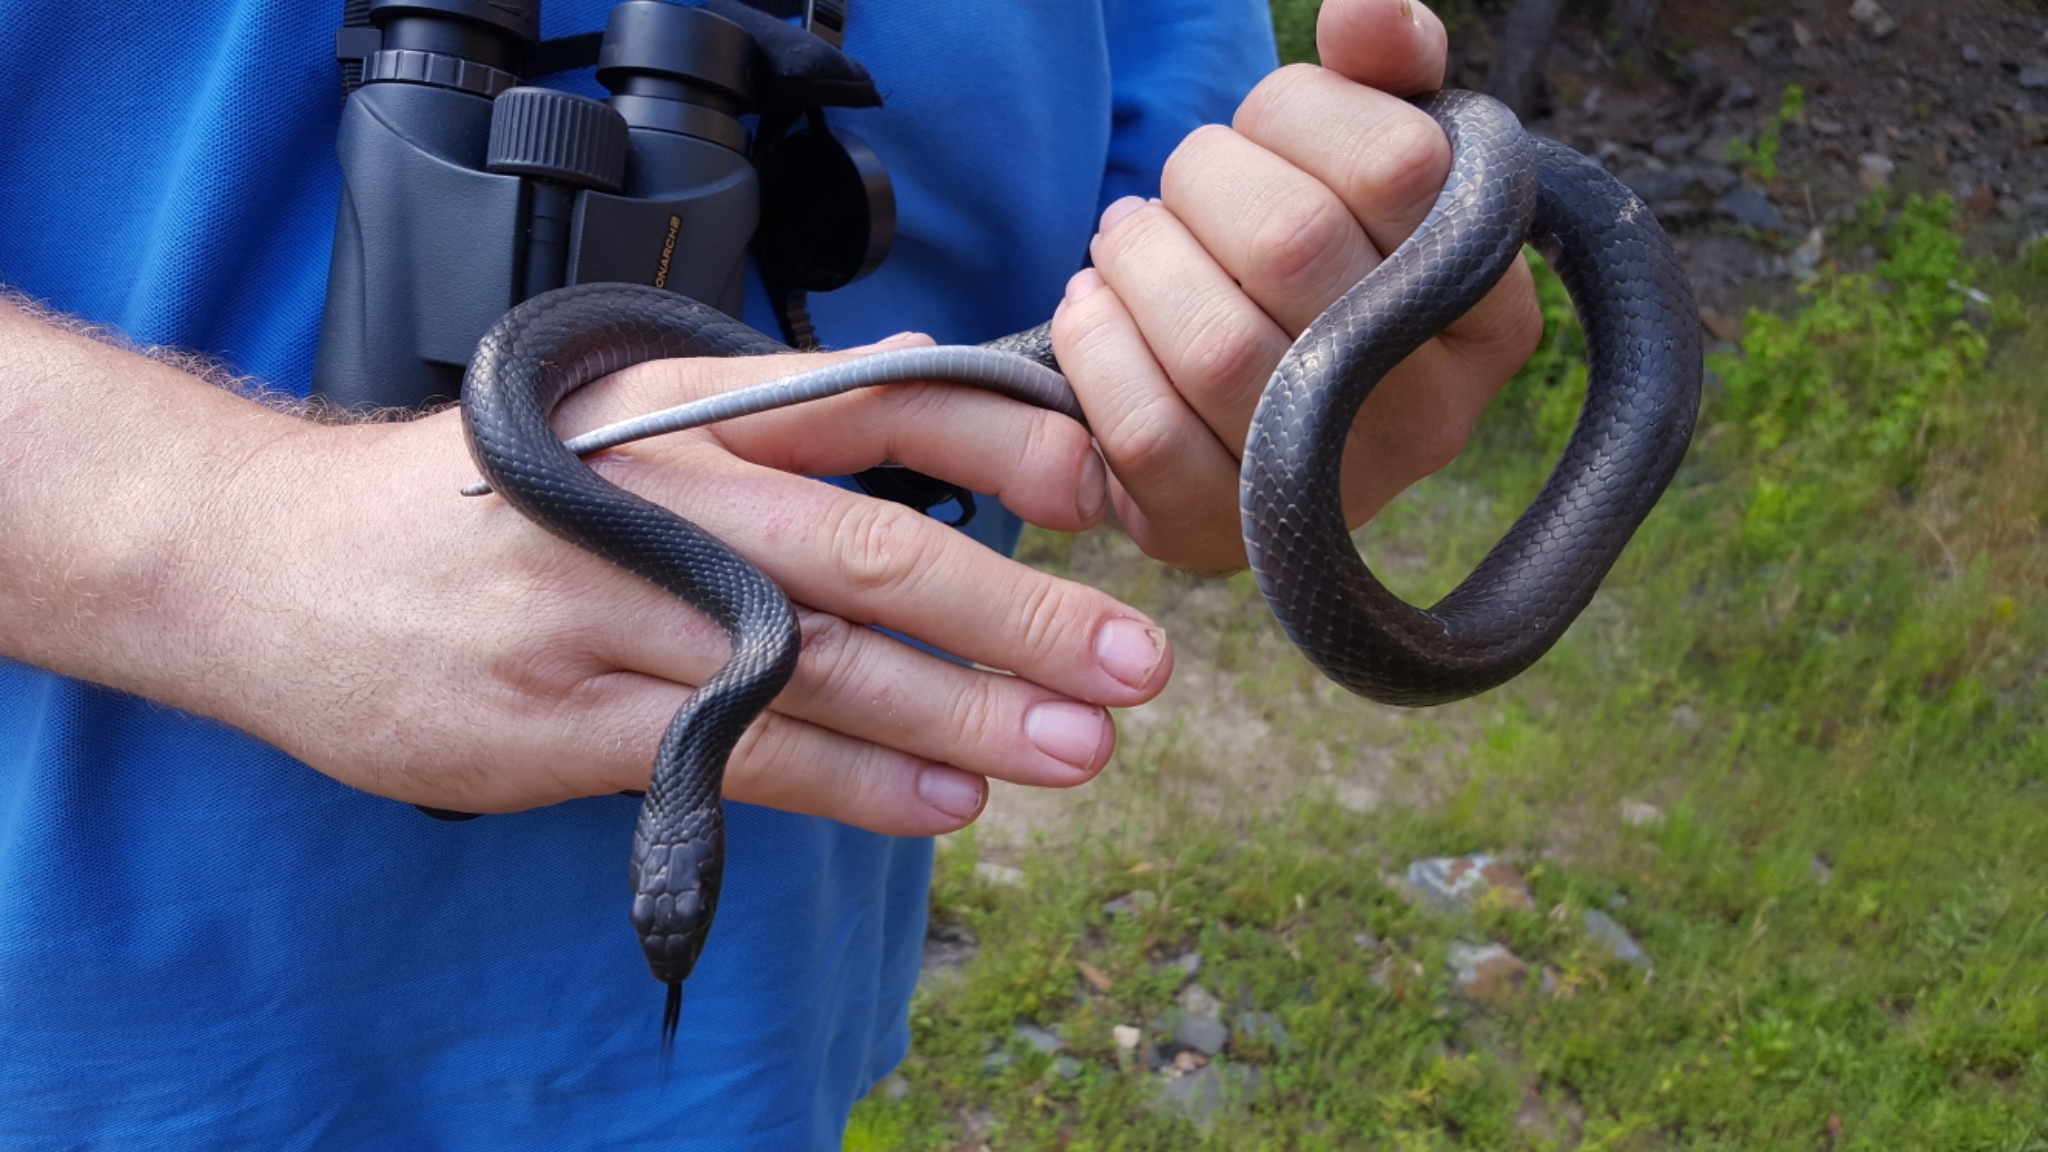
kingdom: Animalia
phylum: Chordata
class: Squamata
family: Colubridae
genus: Coluber
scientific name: Coluber constrictor
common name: Eastern racer
